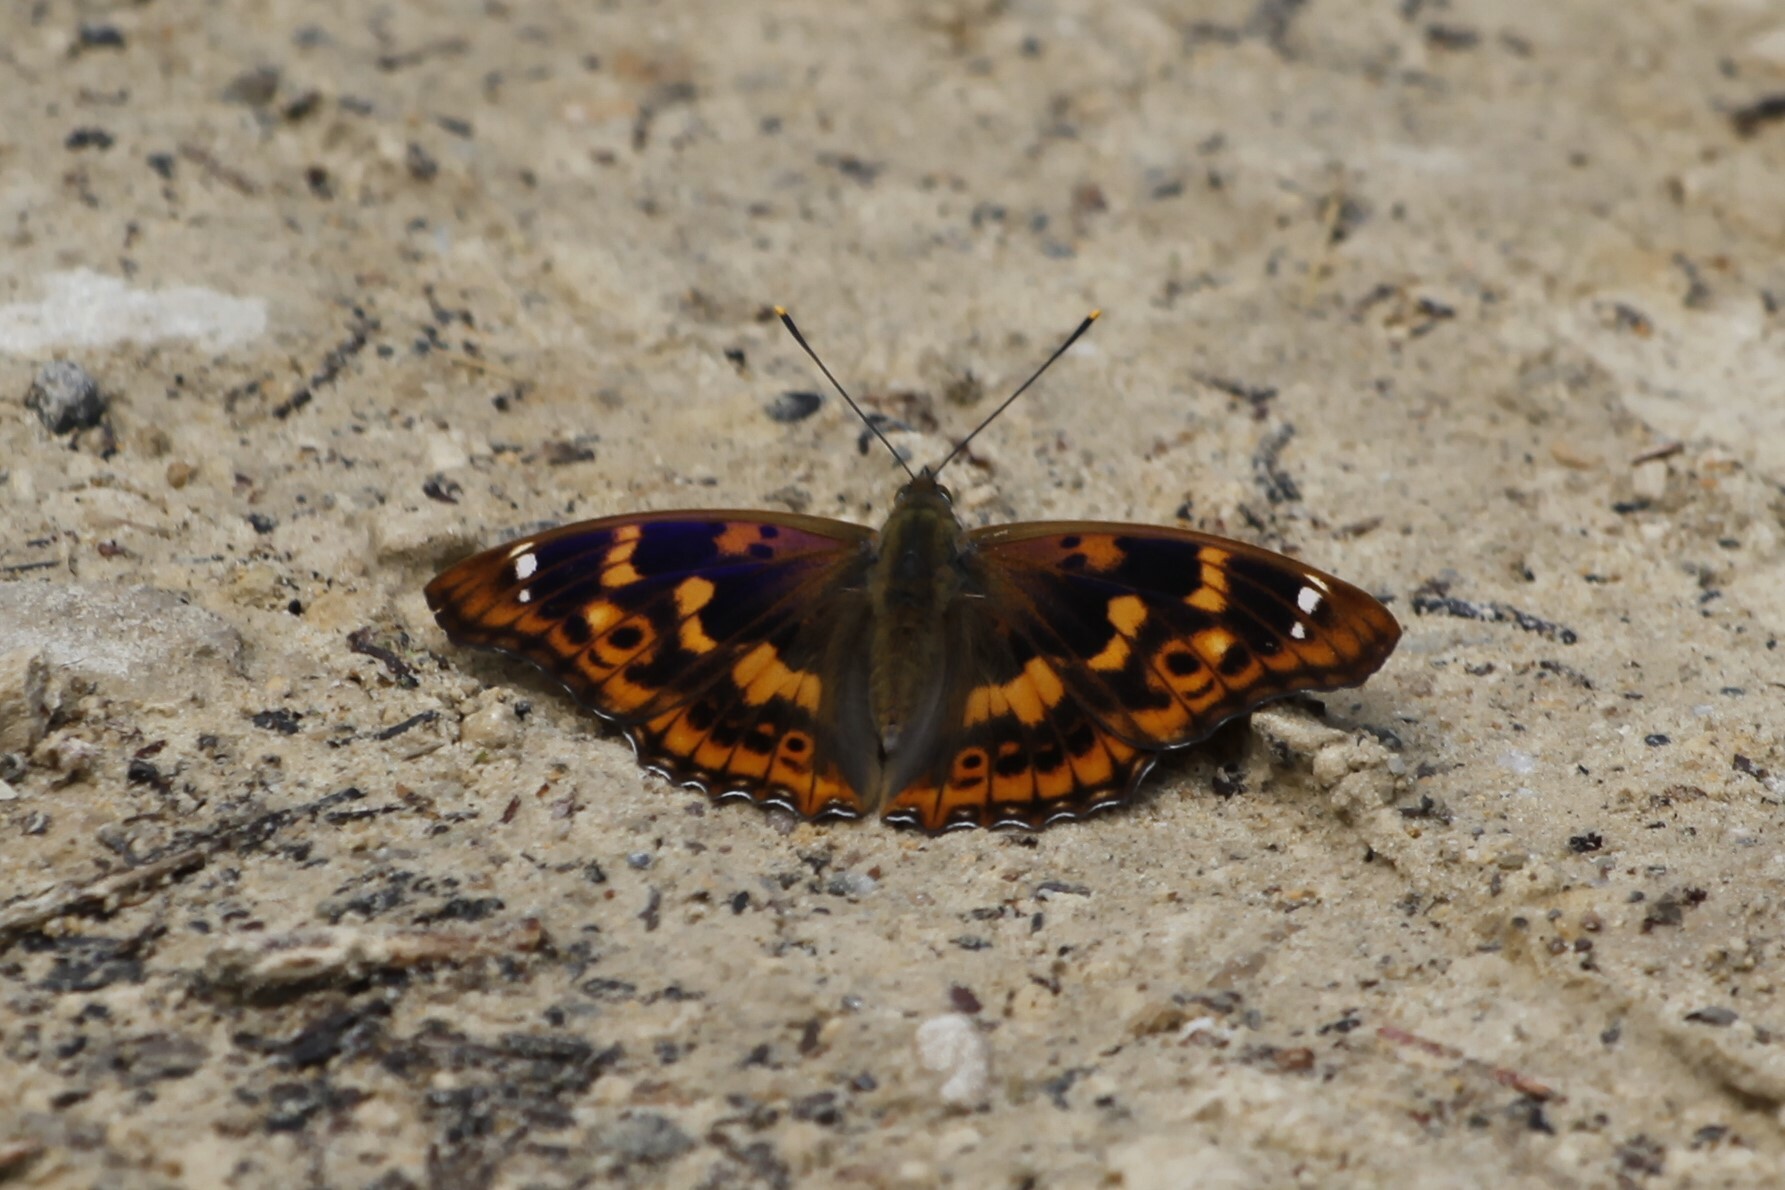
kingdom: Animalia
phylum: Arthropoda
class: Insecta
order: Lepidoptera
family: Nymphalidae
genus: Apatura
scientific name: Apatura ilia
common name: Lesser purple emperor
